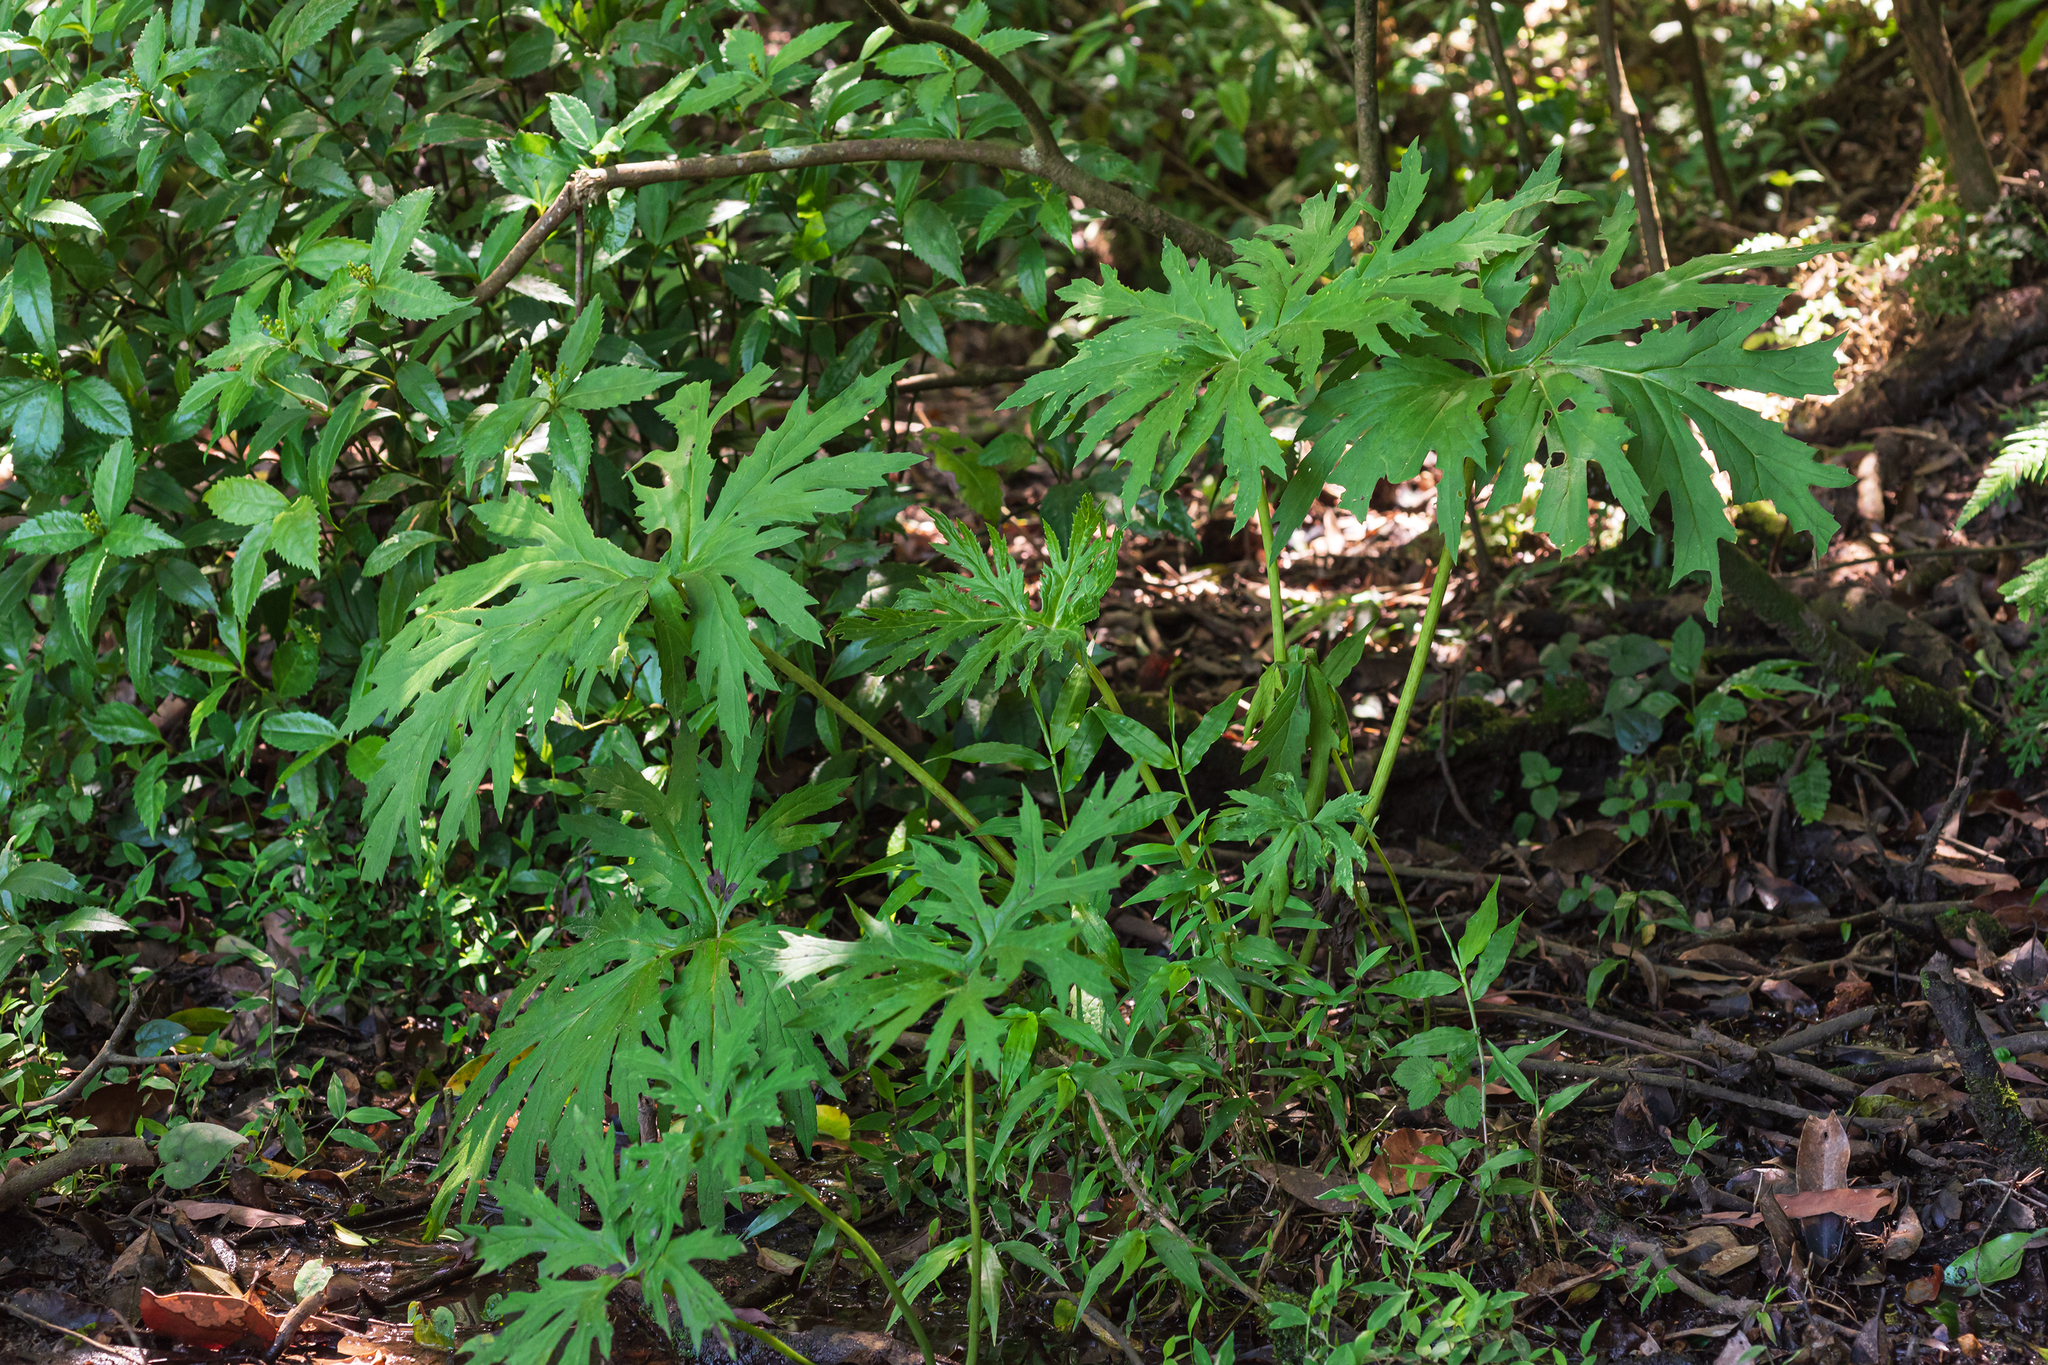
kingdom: Plantae
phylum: Tracheophyta
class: Magnoliopsida
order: Asterales
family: Asteraceae
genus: Ligularia
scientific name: Ligularia japonica
